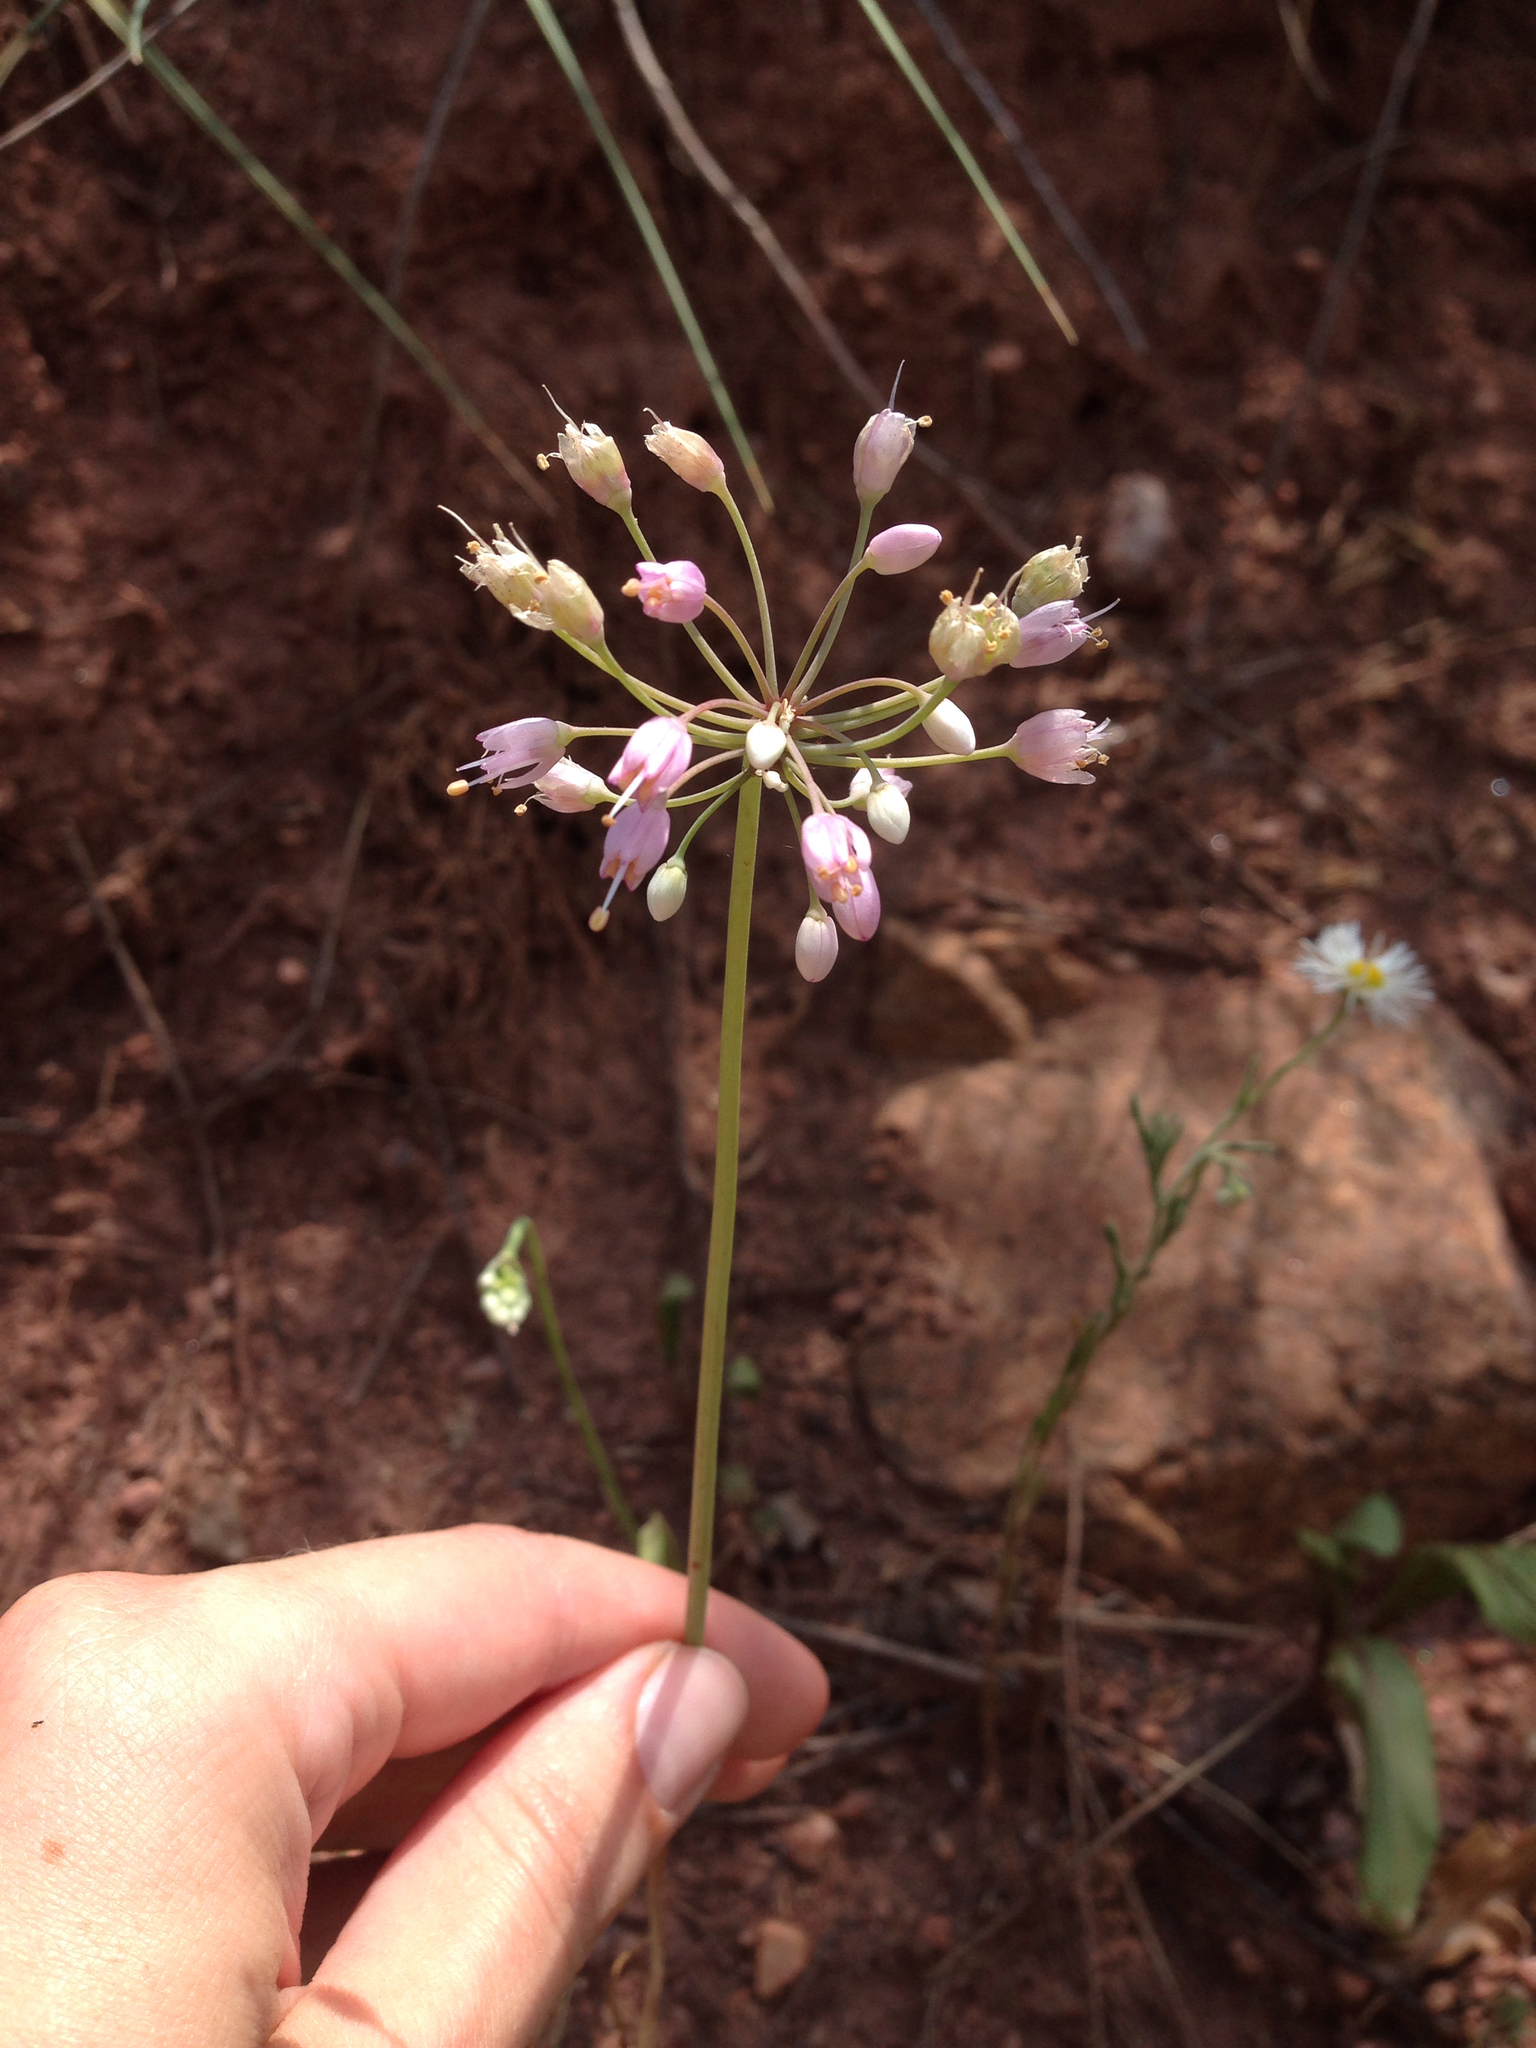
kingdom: Plantae
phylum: Tracheophyta
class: Liliopsida
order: Asparagales
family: Amaryllidaceae
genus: Allium
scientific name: Allium cernuum
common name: Nodding onion
